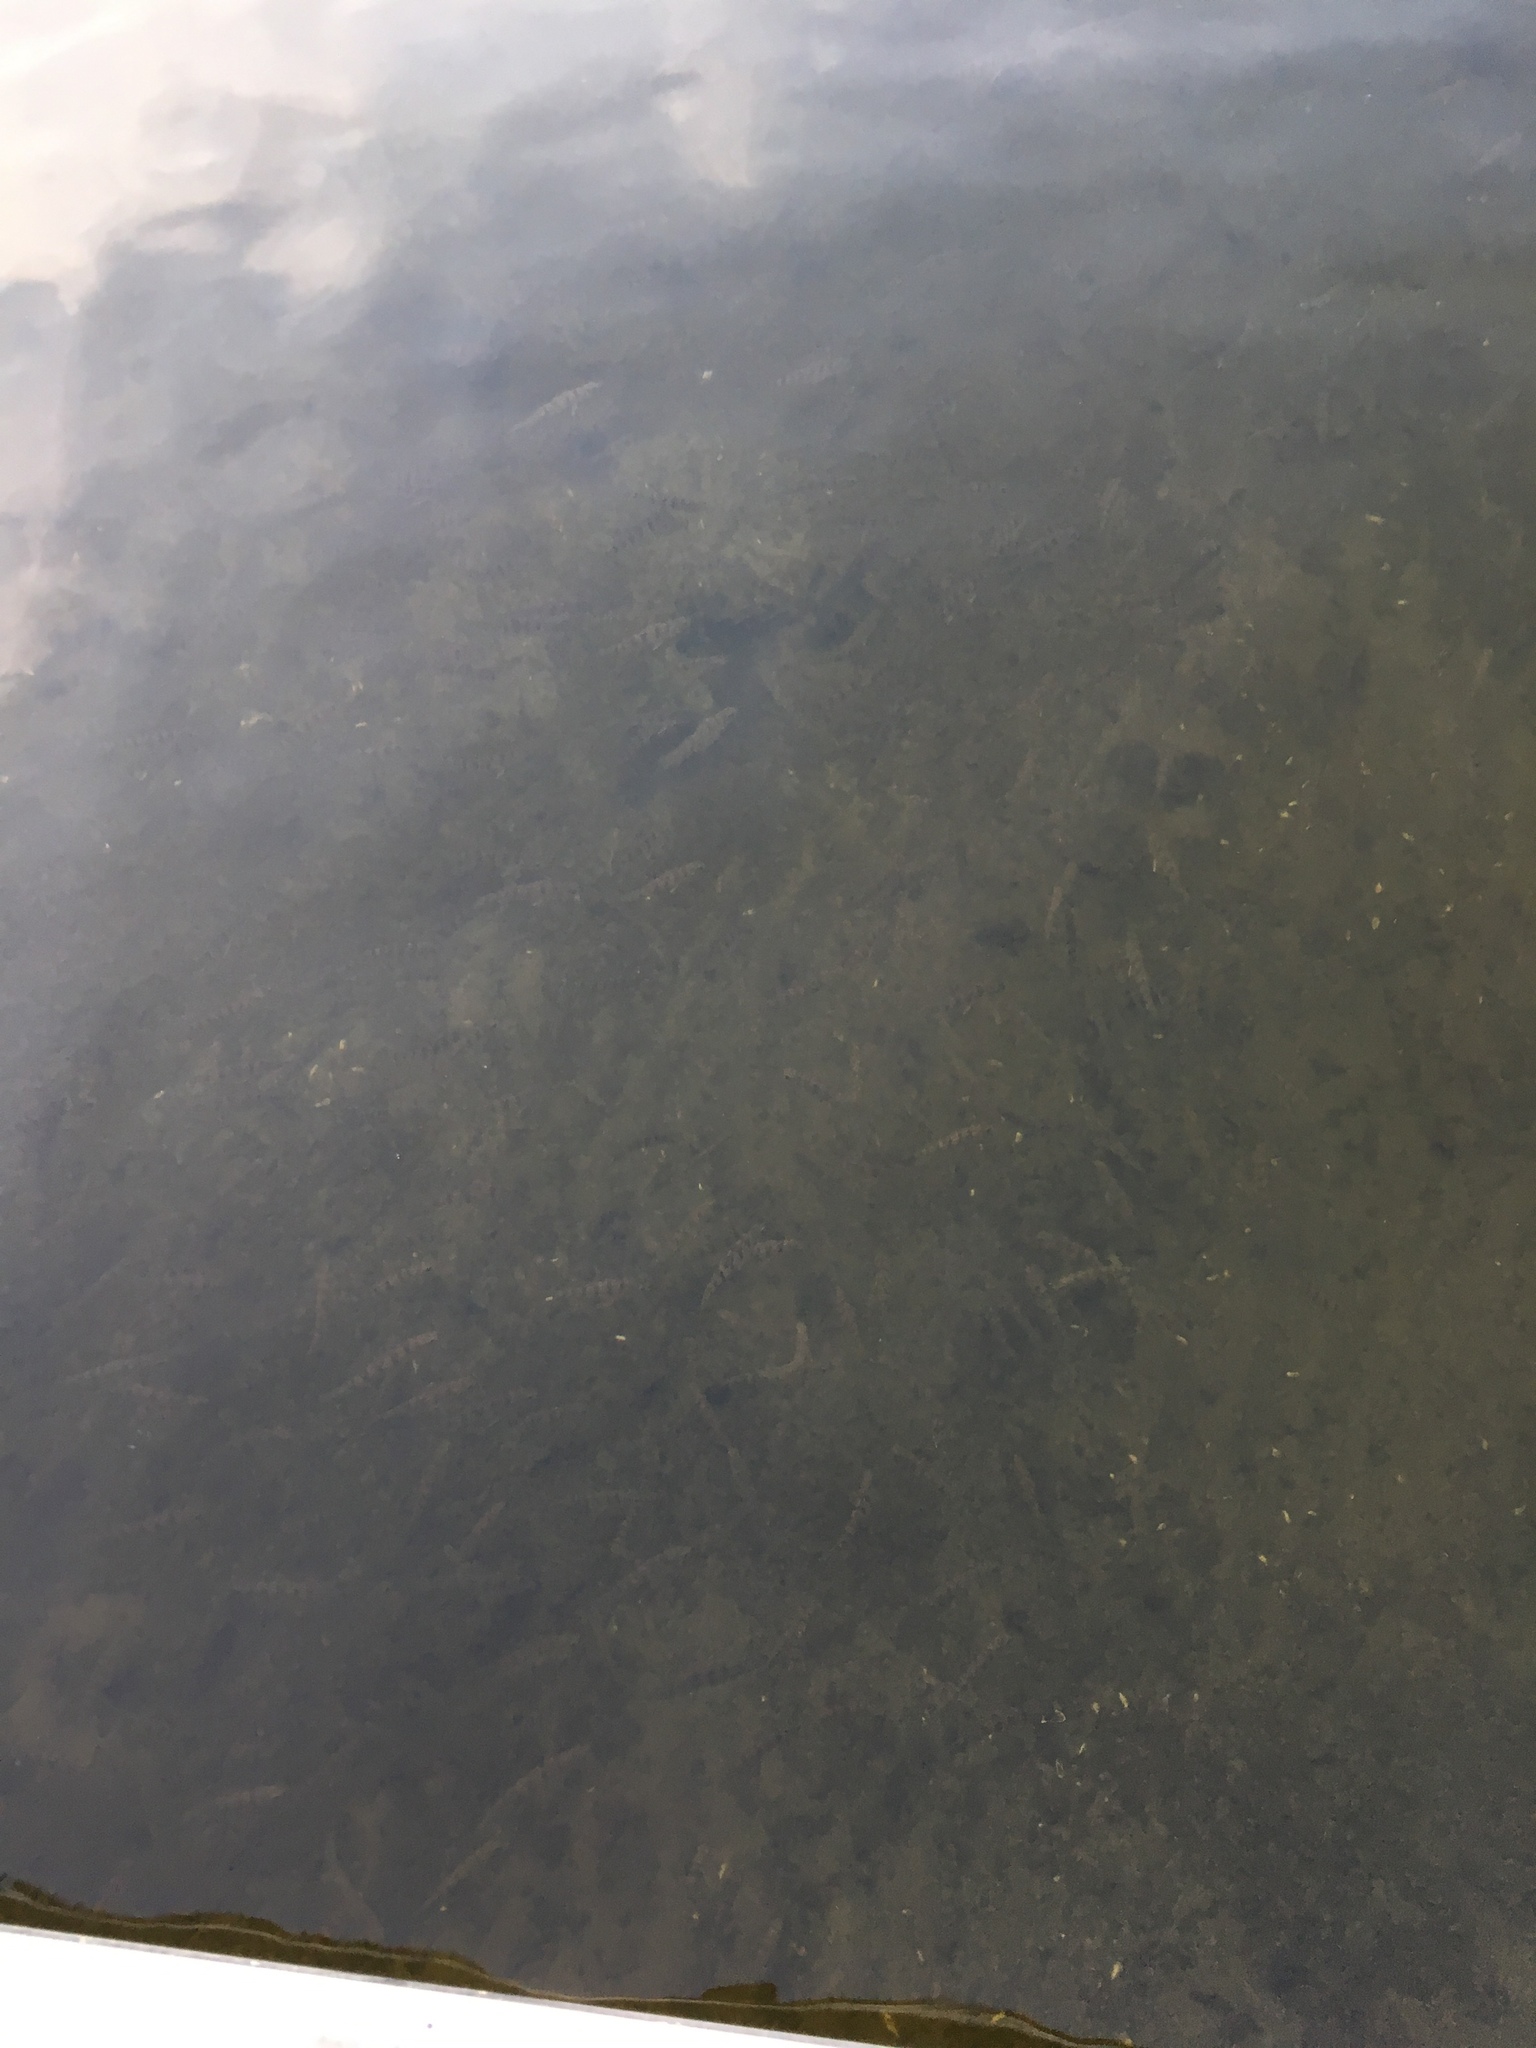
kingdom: Animalia
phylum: Chordata
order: Perciformes
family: Percidae
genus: Perca
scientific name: Perca flavescens
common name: Yellow perch
